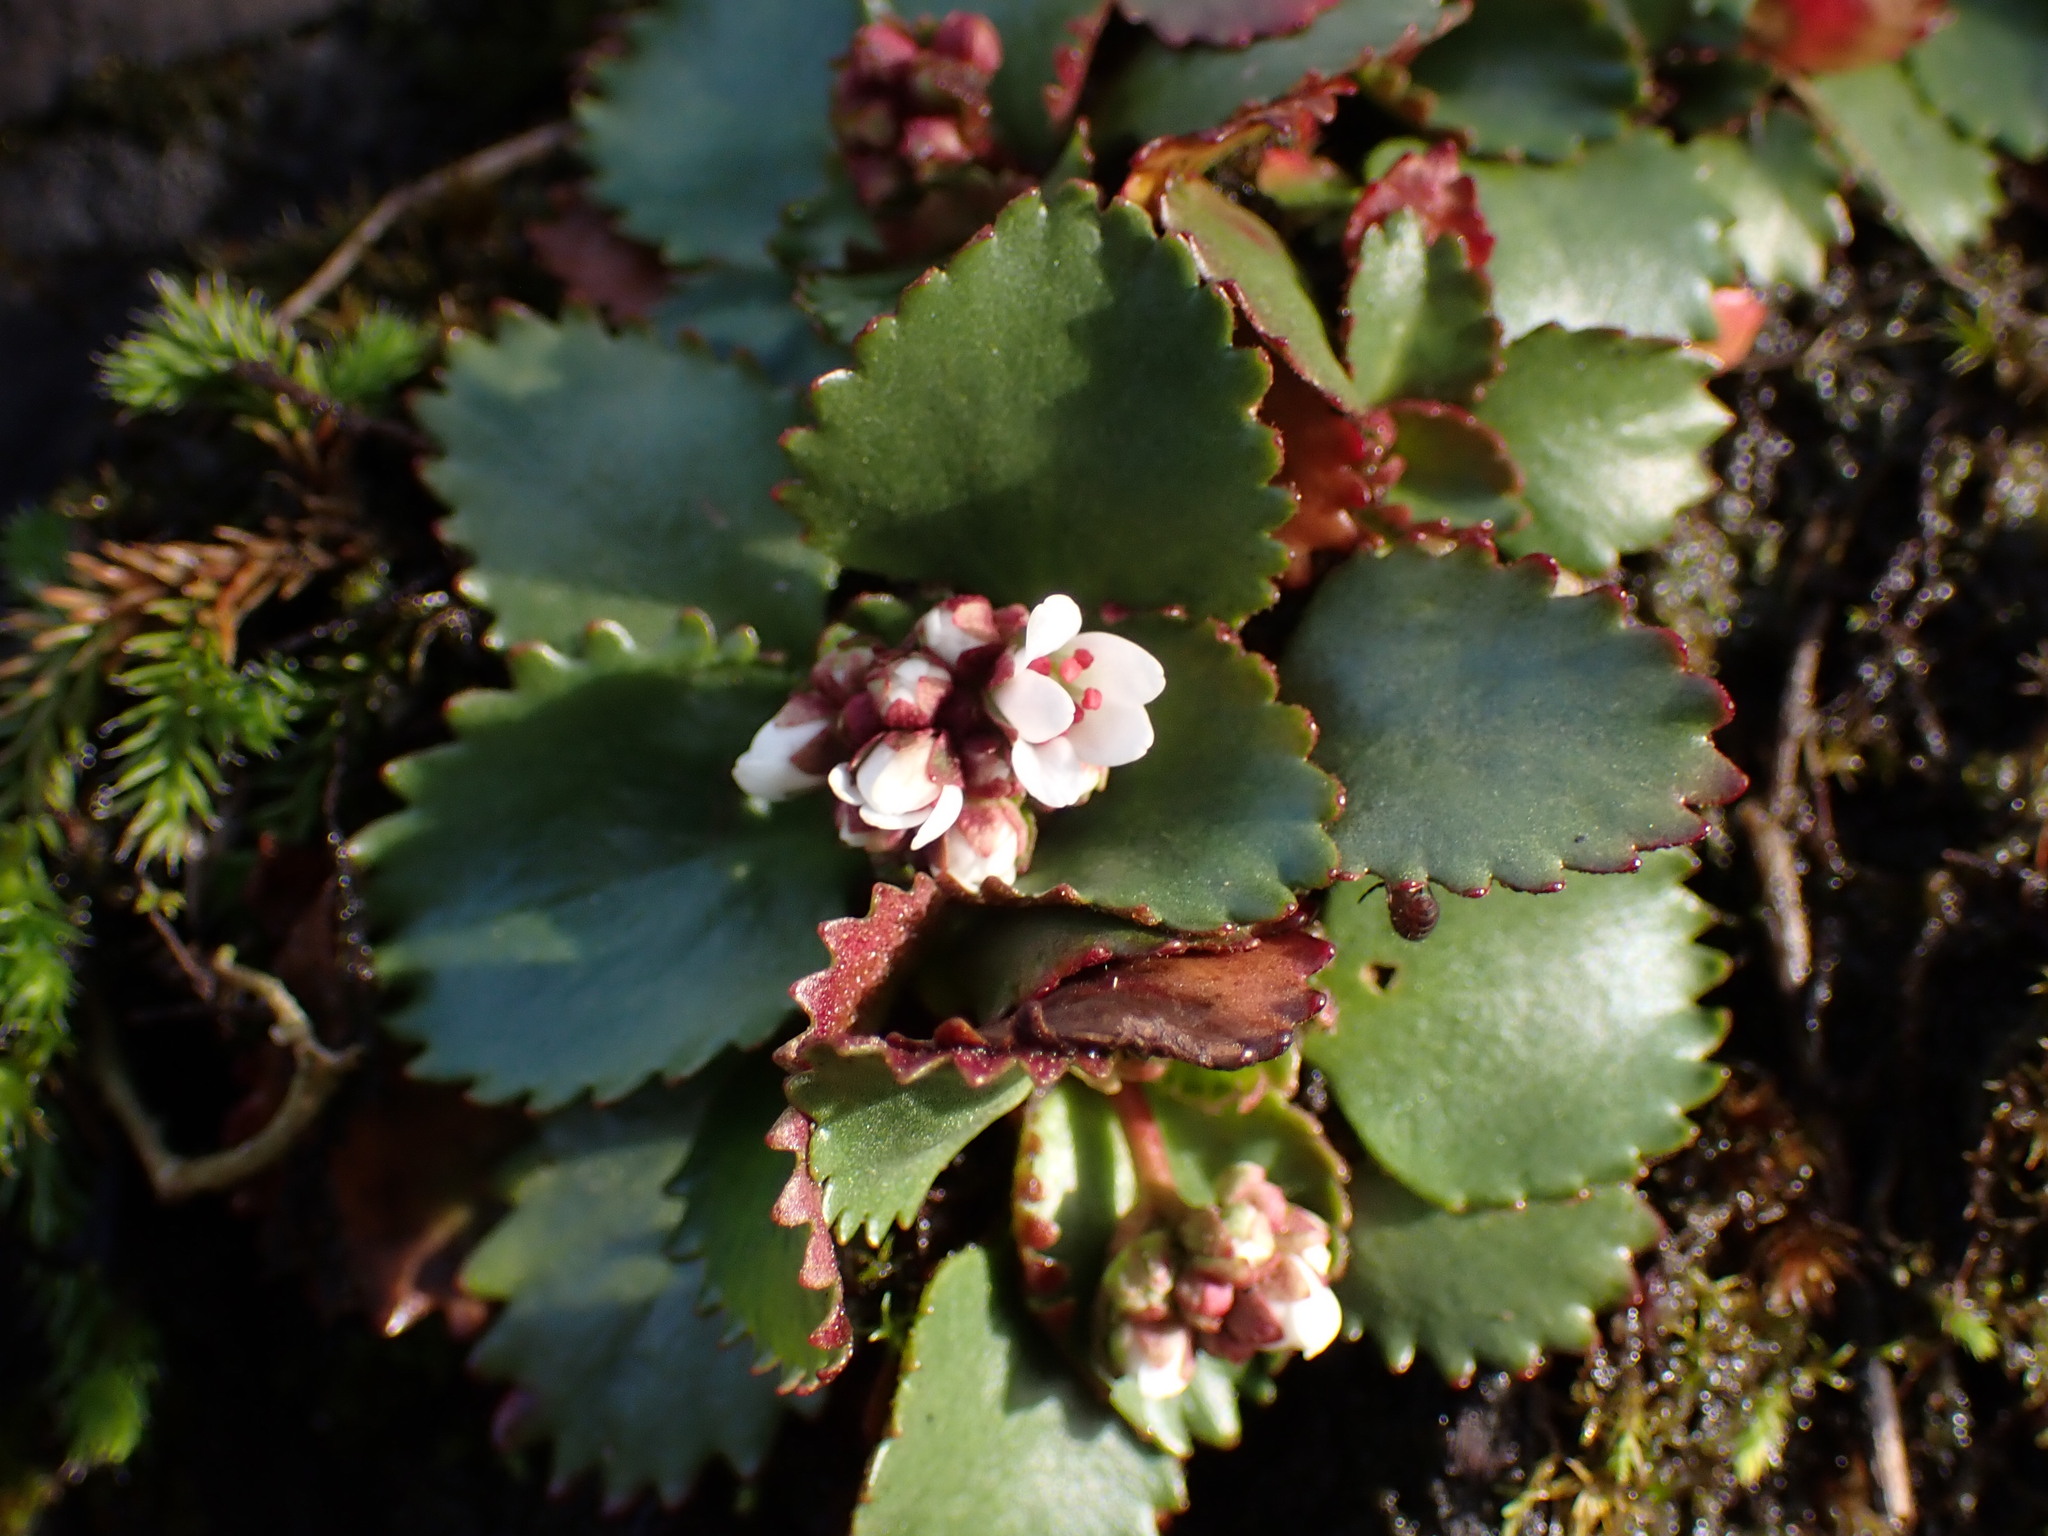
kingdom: Plantae
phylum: Tracheophyta
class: Magnoliopsida
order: Saxifragales
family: Saxifragaceae
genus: Micranthes
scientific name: Micranthes rufidula
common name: Rustyhair saxifrage
